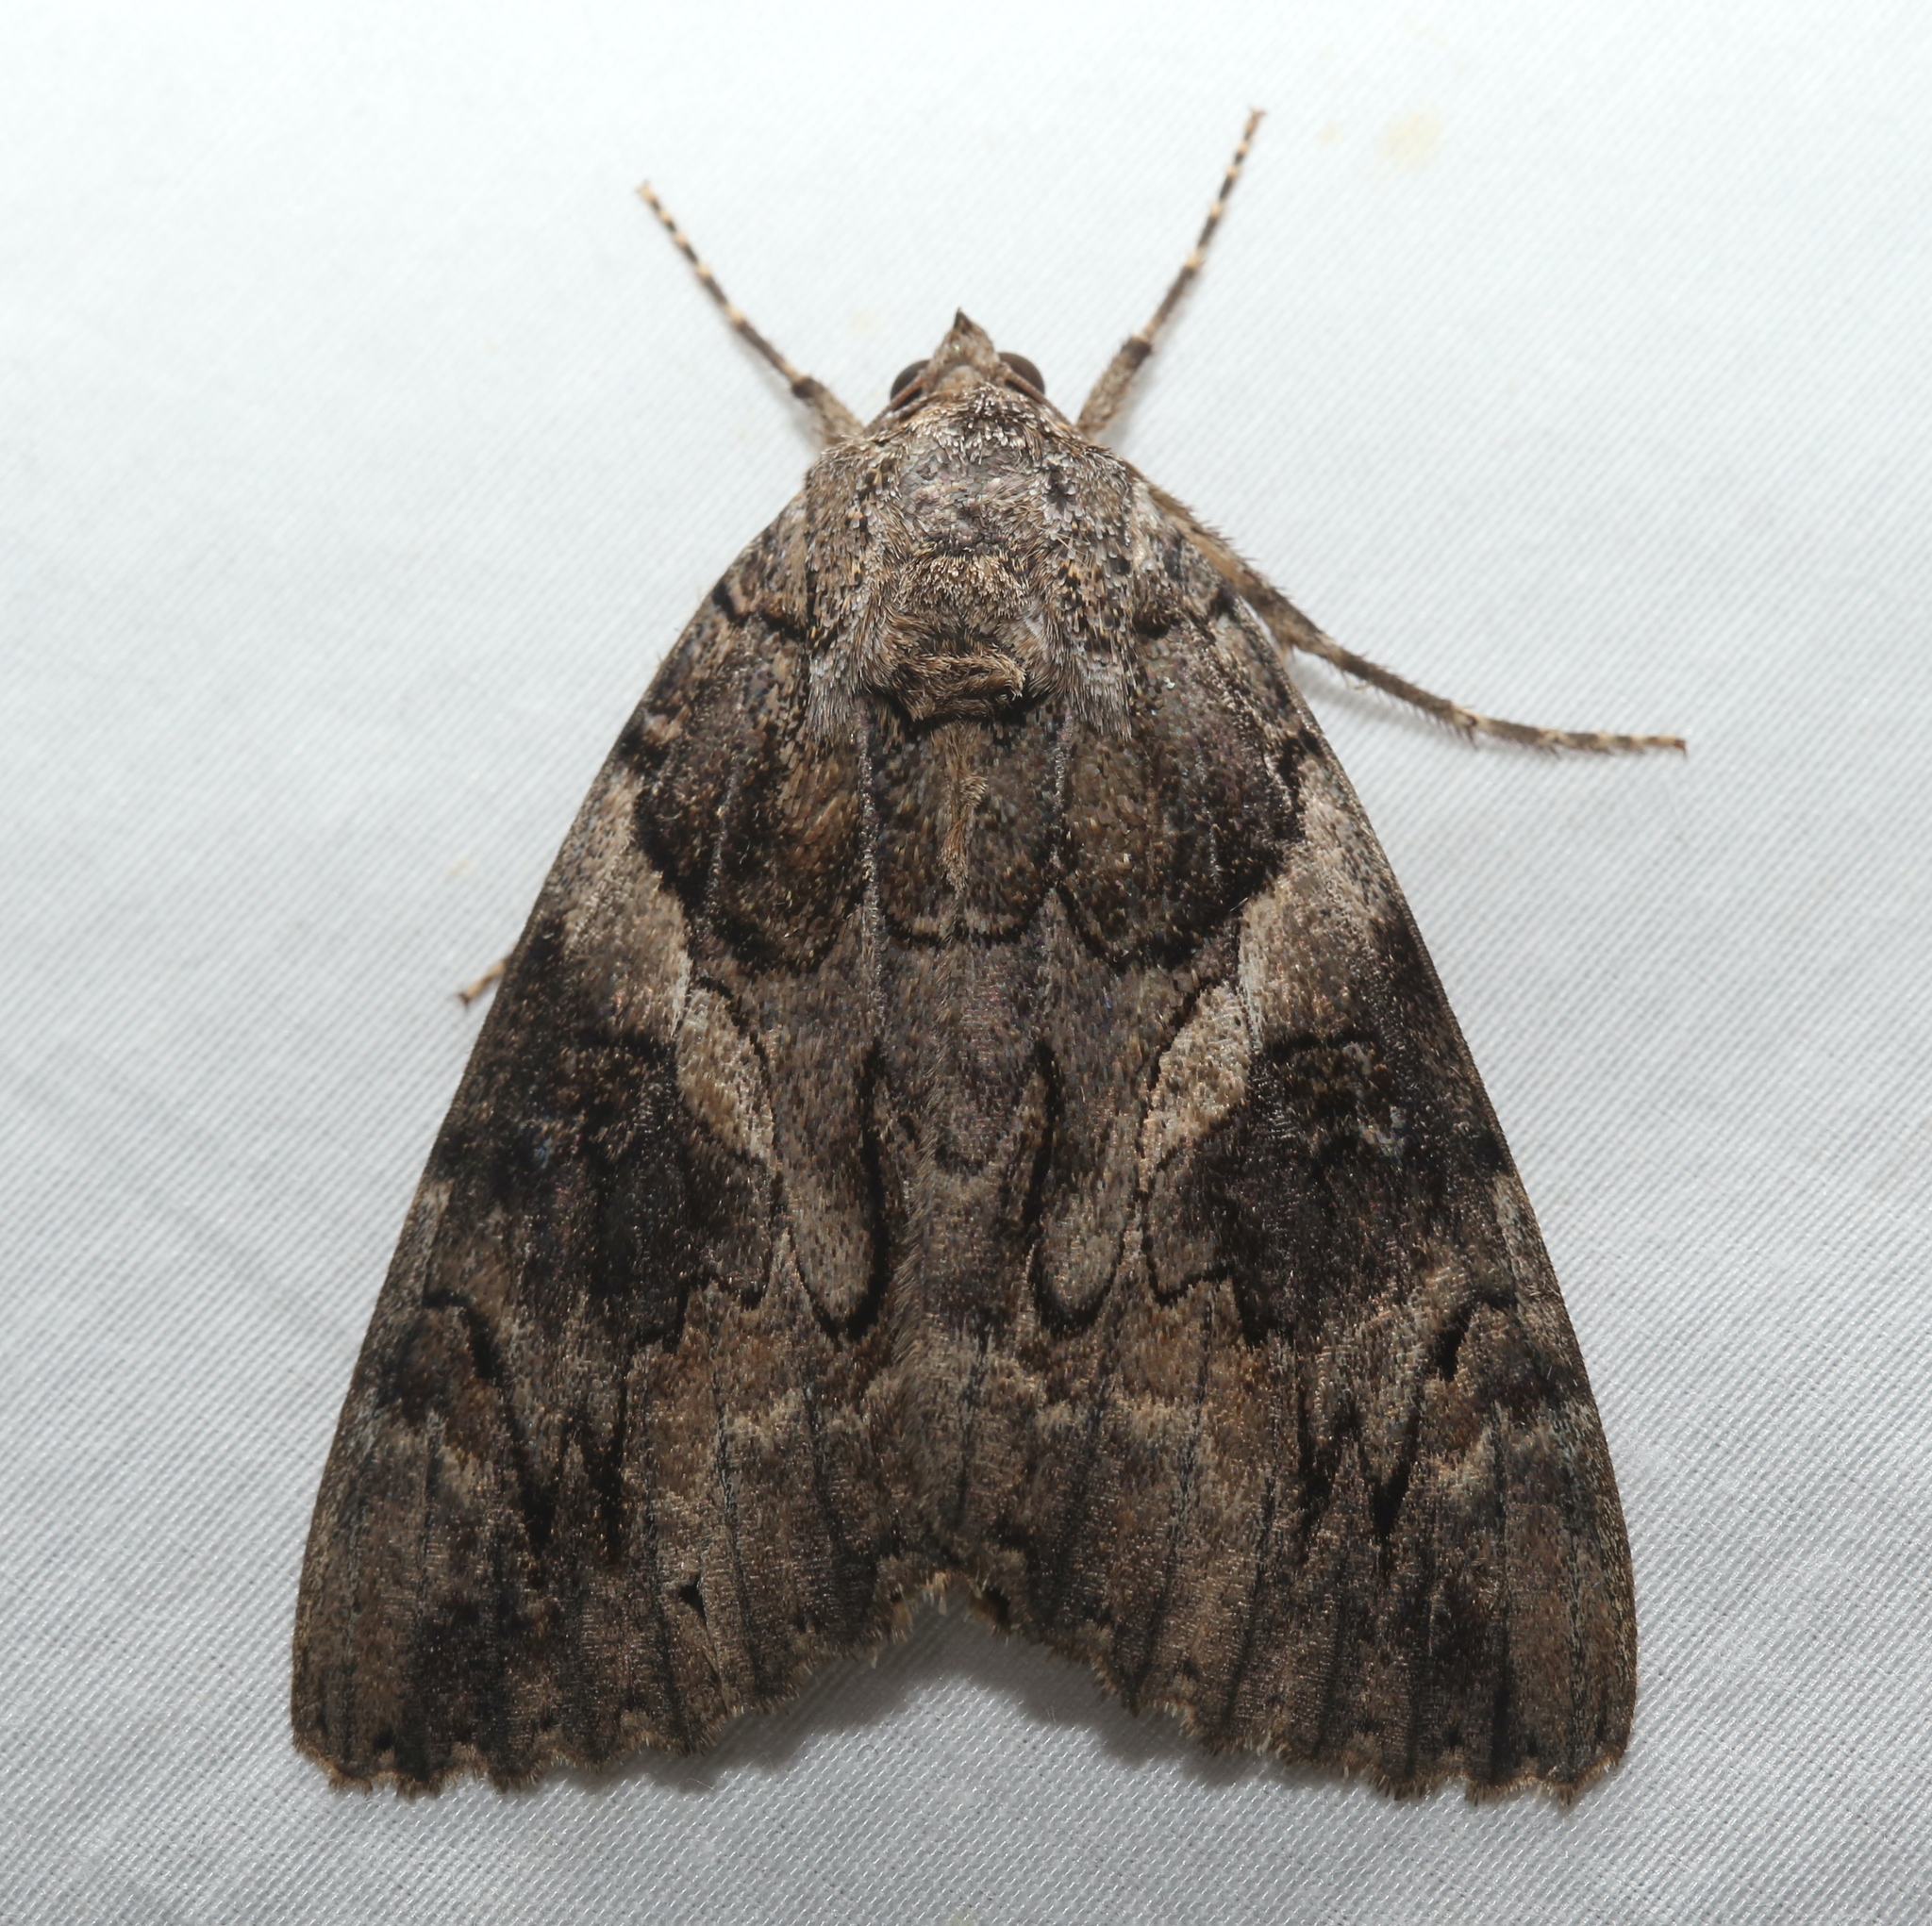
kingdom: Animalia
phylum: Arthropoda
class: Insecta
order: Lepidoptera
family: Erebidae
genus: Catocala
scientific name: Catocala piatrix
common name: The penitent underwing
